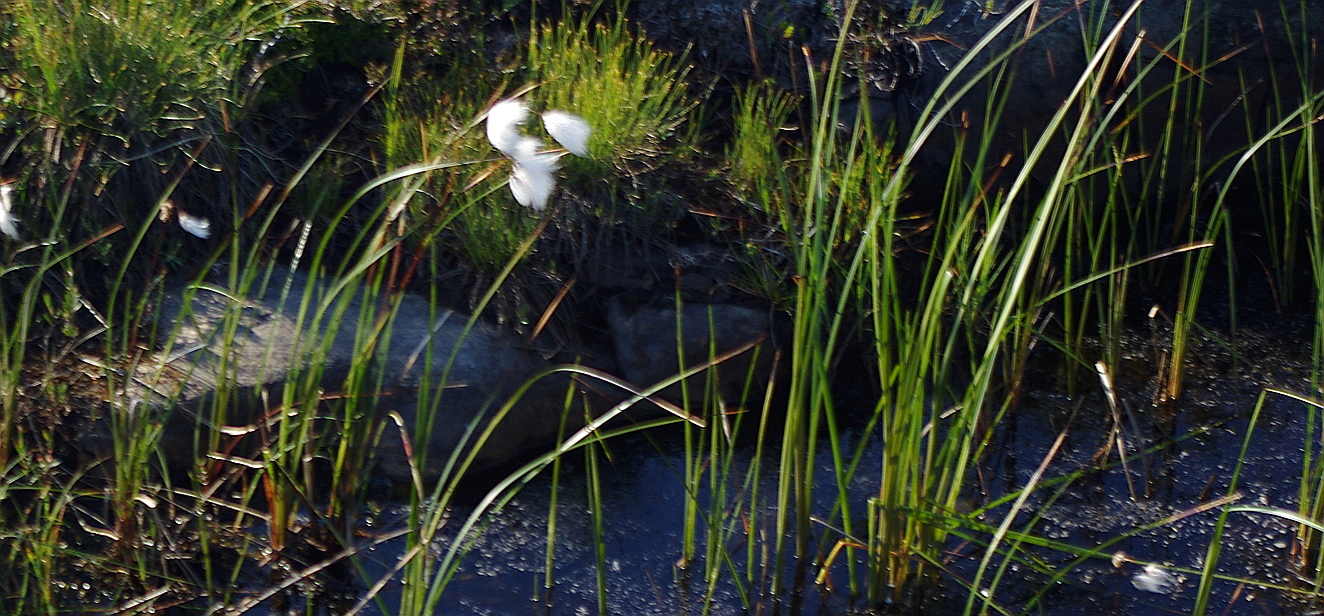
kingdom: Plantae
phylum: Tracheophyta
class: Liliopsida
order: Poales
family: Cyperaceae
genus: Eriophorum
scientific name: Eriophorum angustifolium
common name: Common cottongrass
